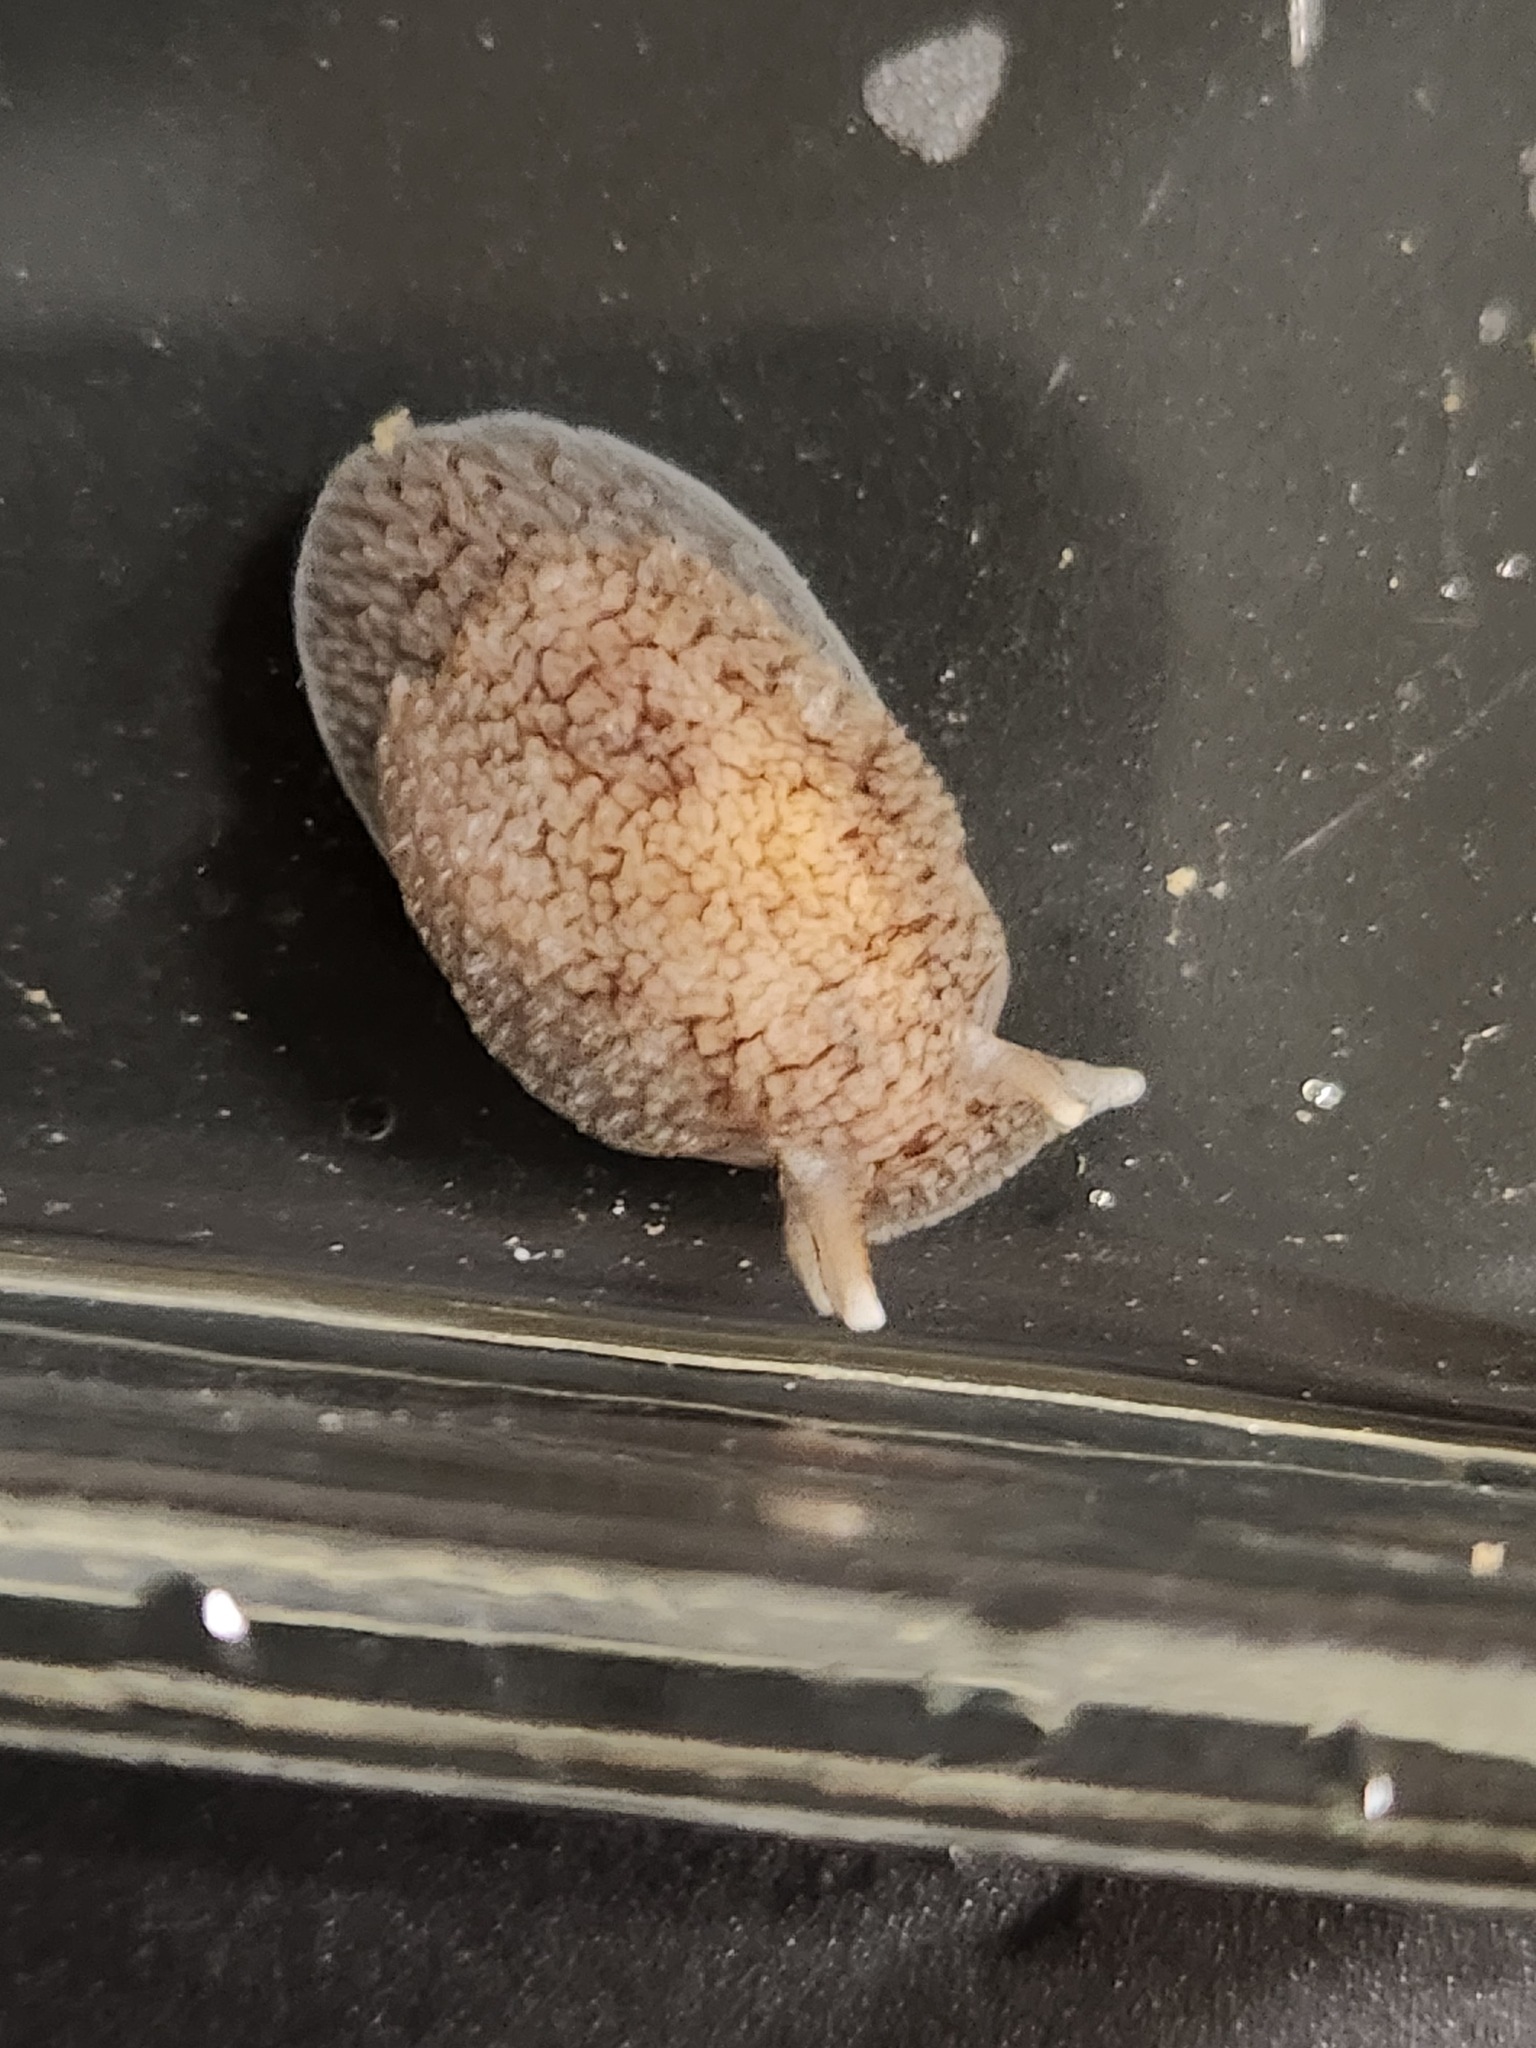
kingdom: Animalia
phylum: Mollusca
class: Gastropoda
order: Pleurobranchida
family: Pleurobranchaeidae
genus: Pleurobranchaea
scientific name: Pleurobranchaea maculata
